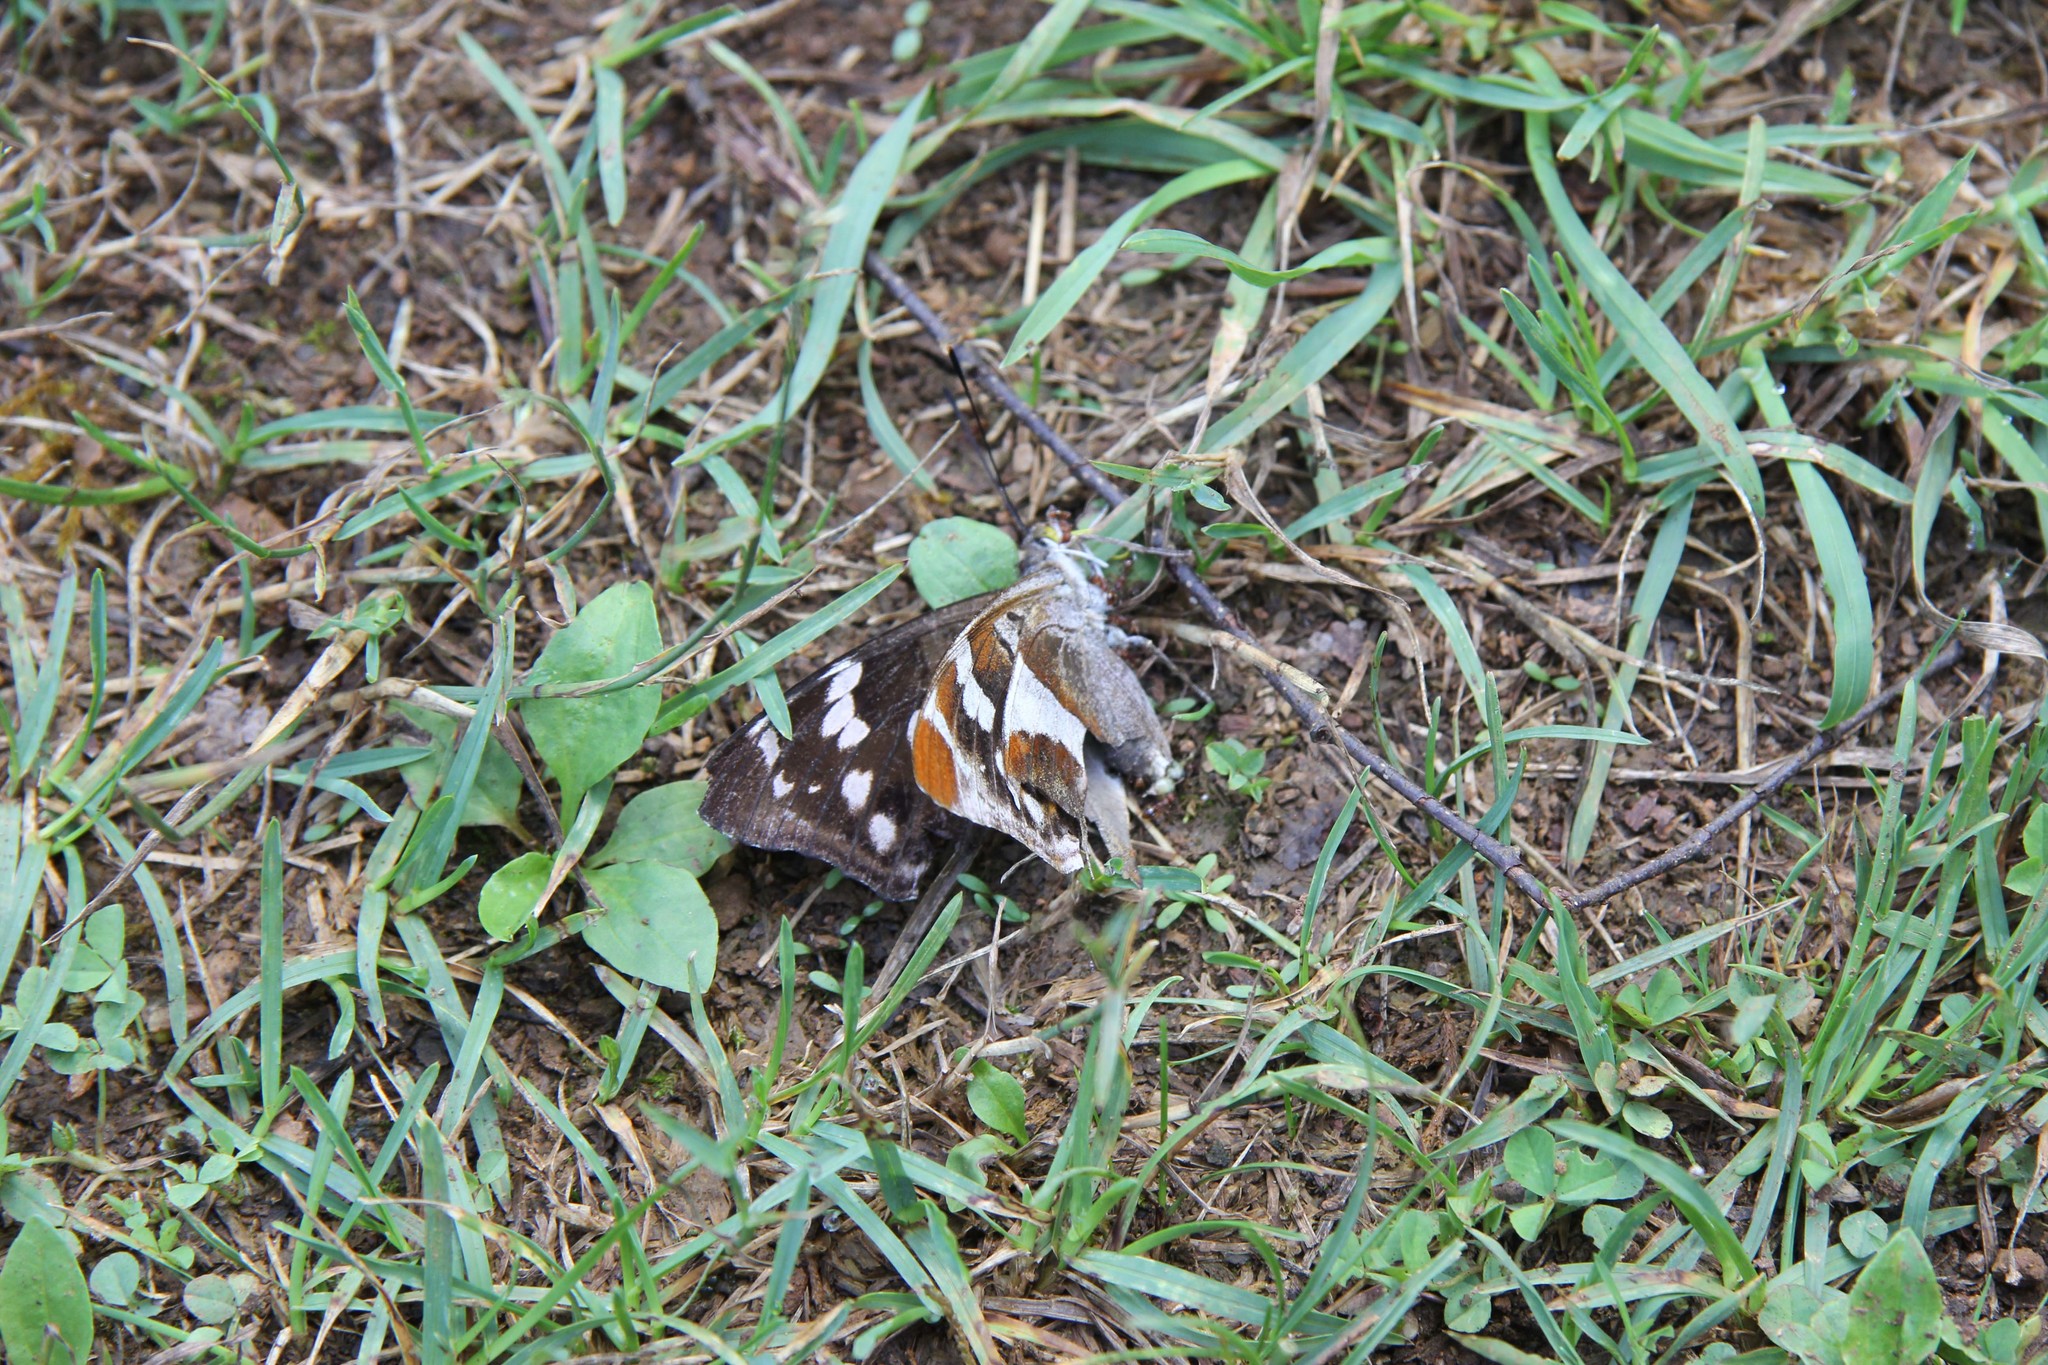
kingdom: Animalia
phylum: Arthropoda
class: Insecta
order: Lepidoptera
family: Nymphalidae
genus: Apatura
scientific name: Apatura iris
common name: Purple emperor
